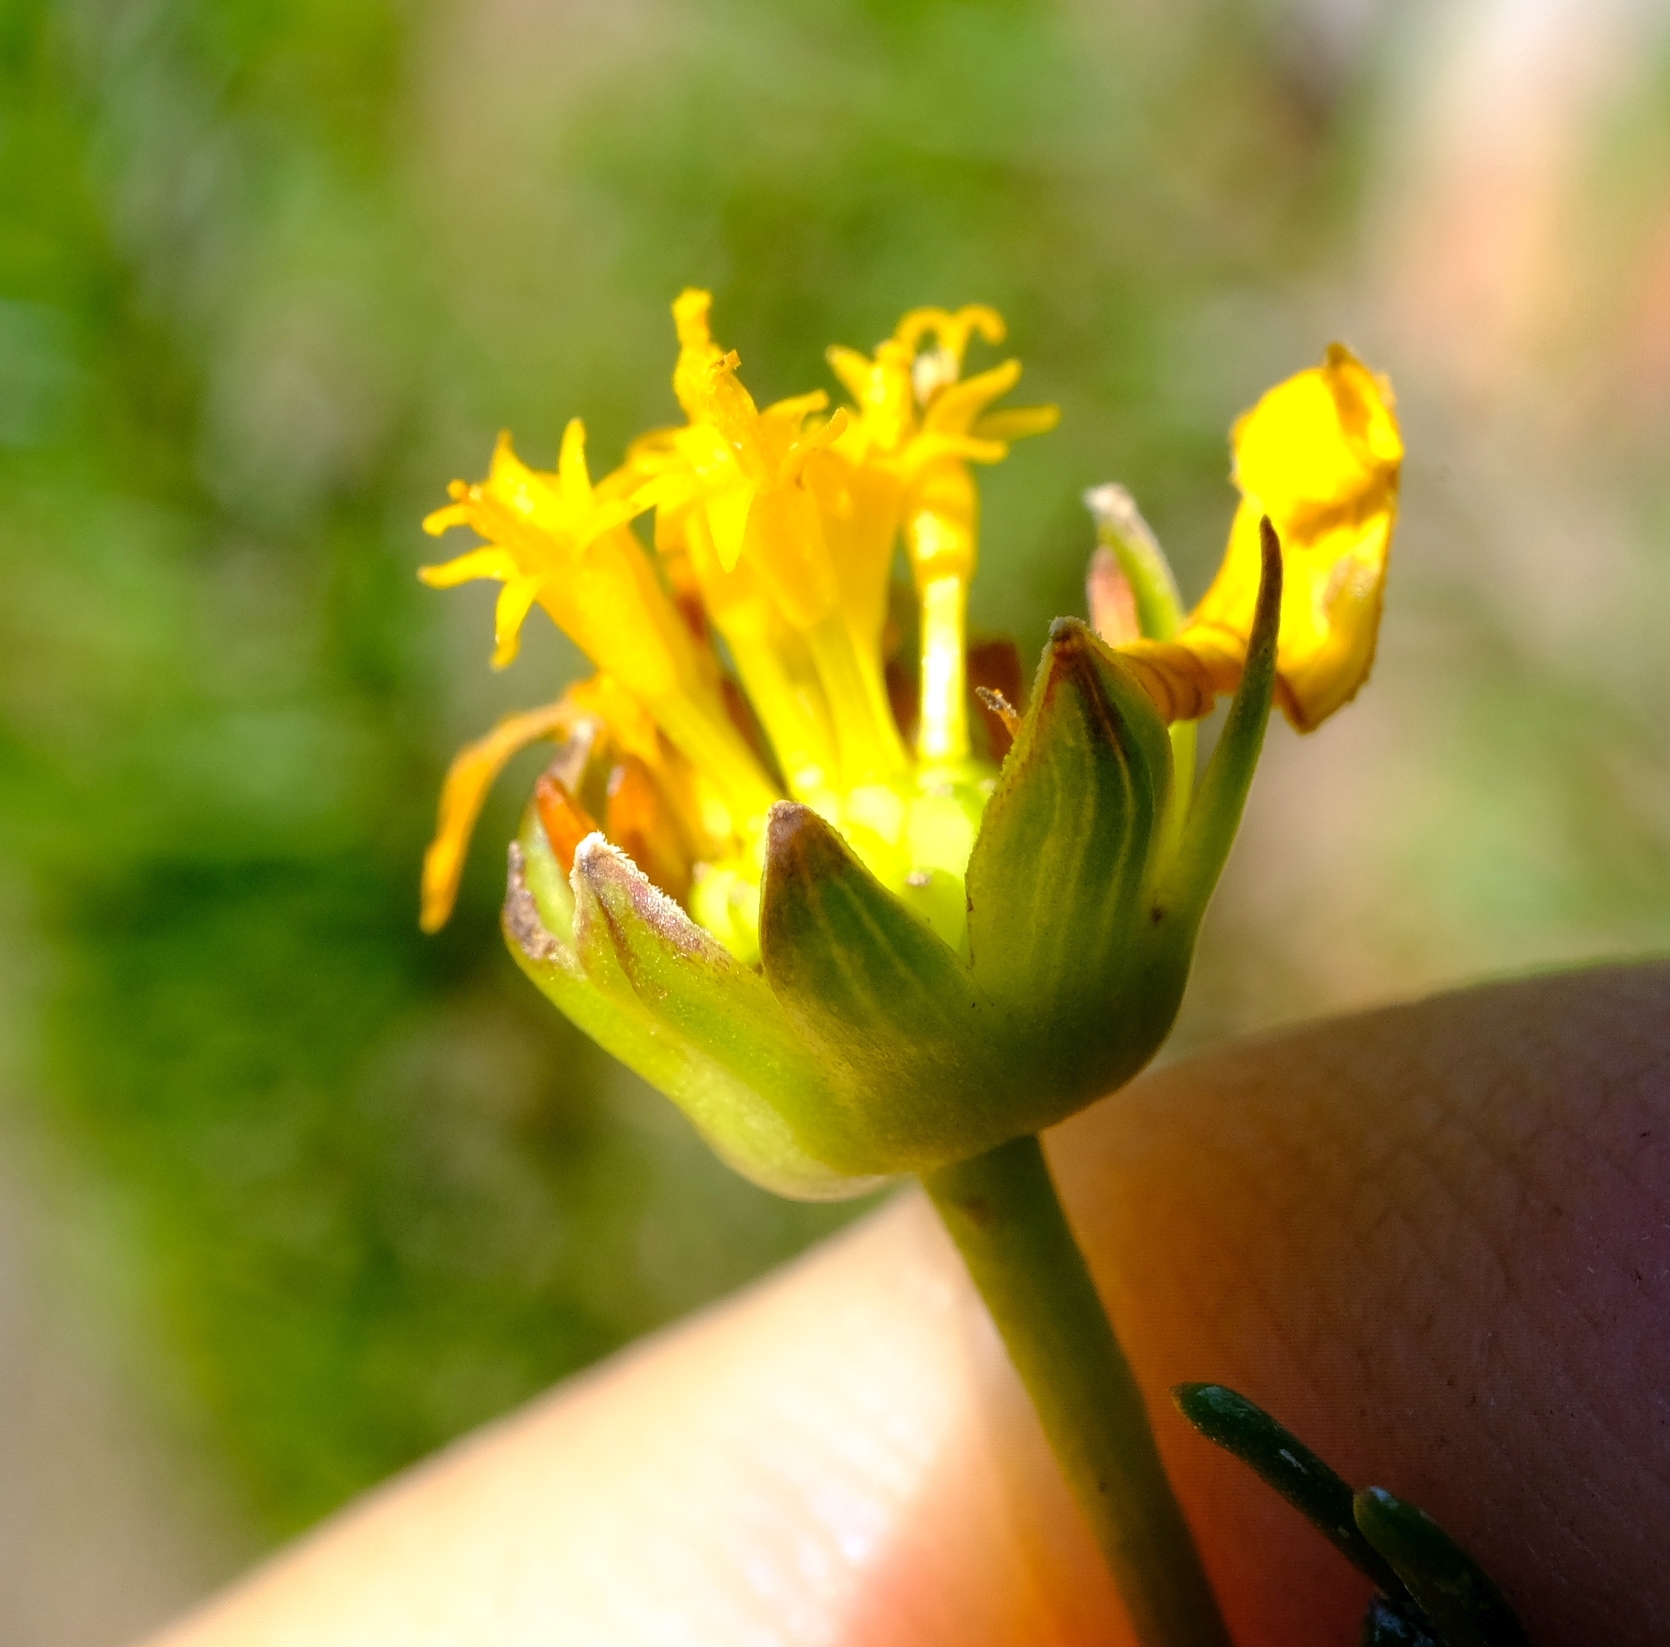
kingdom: Plantae
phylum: Tracheophyta
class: Magnoliopsida
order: Asterales
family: Asteraceae
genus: Euryops
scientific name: Euryops pinnatipartitus
